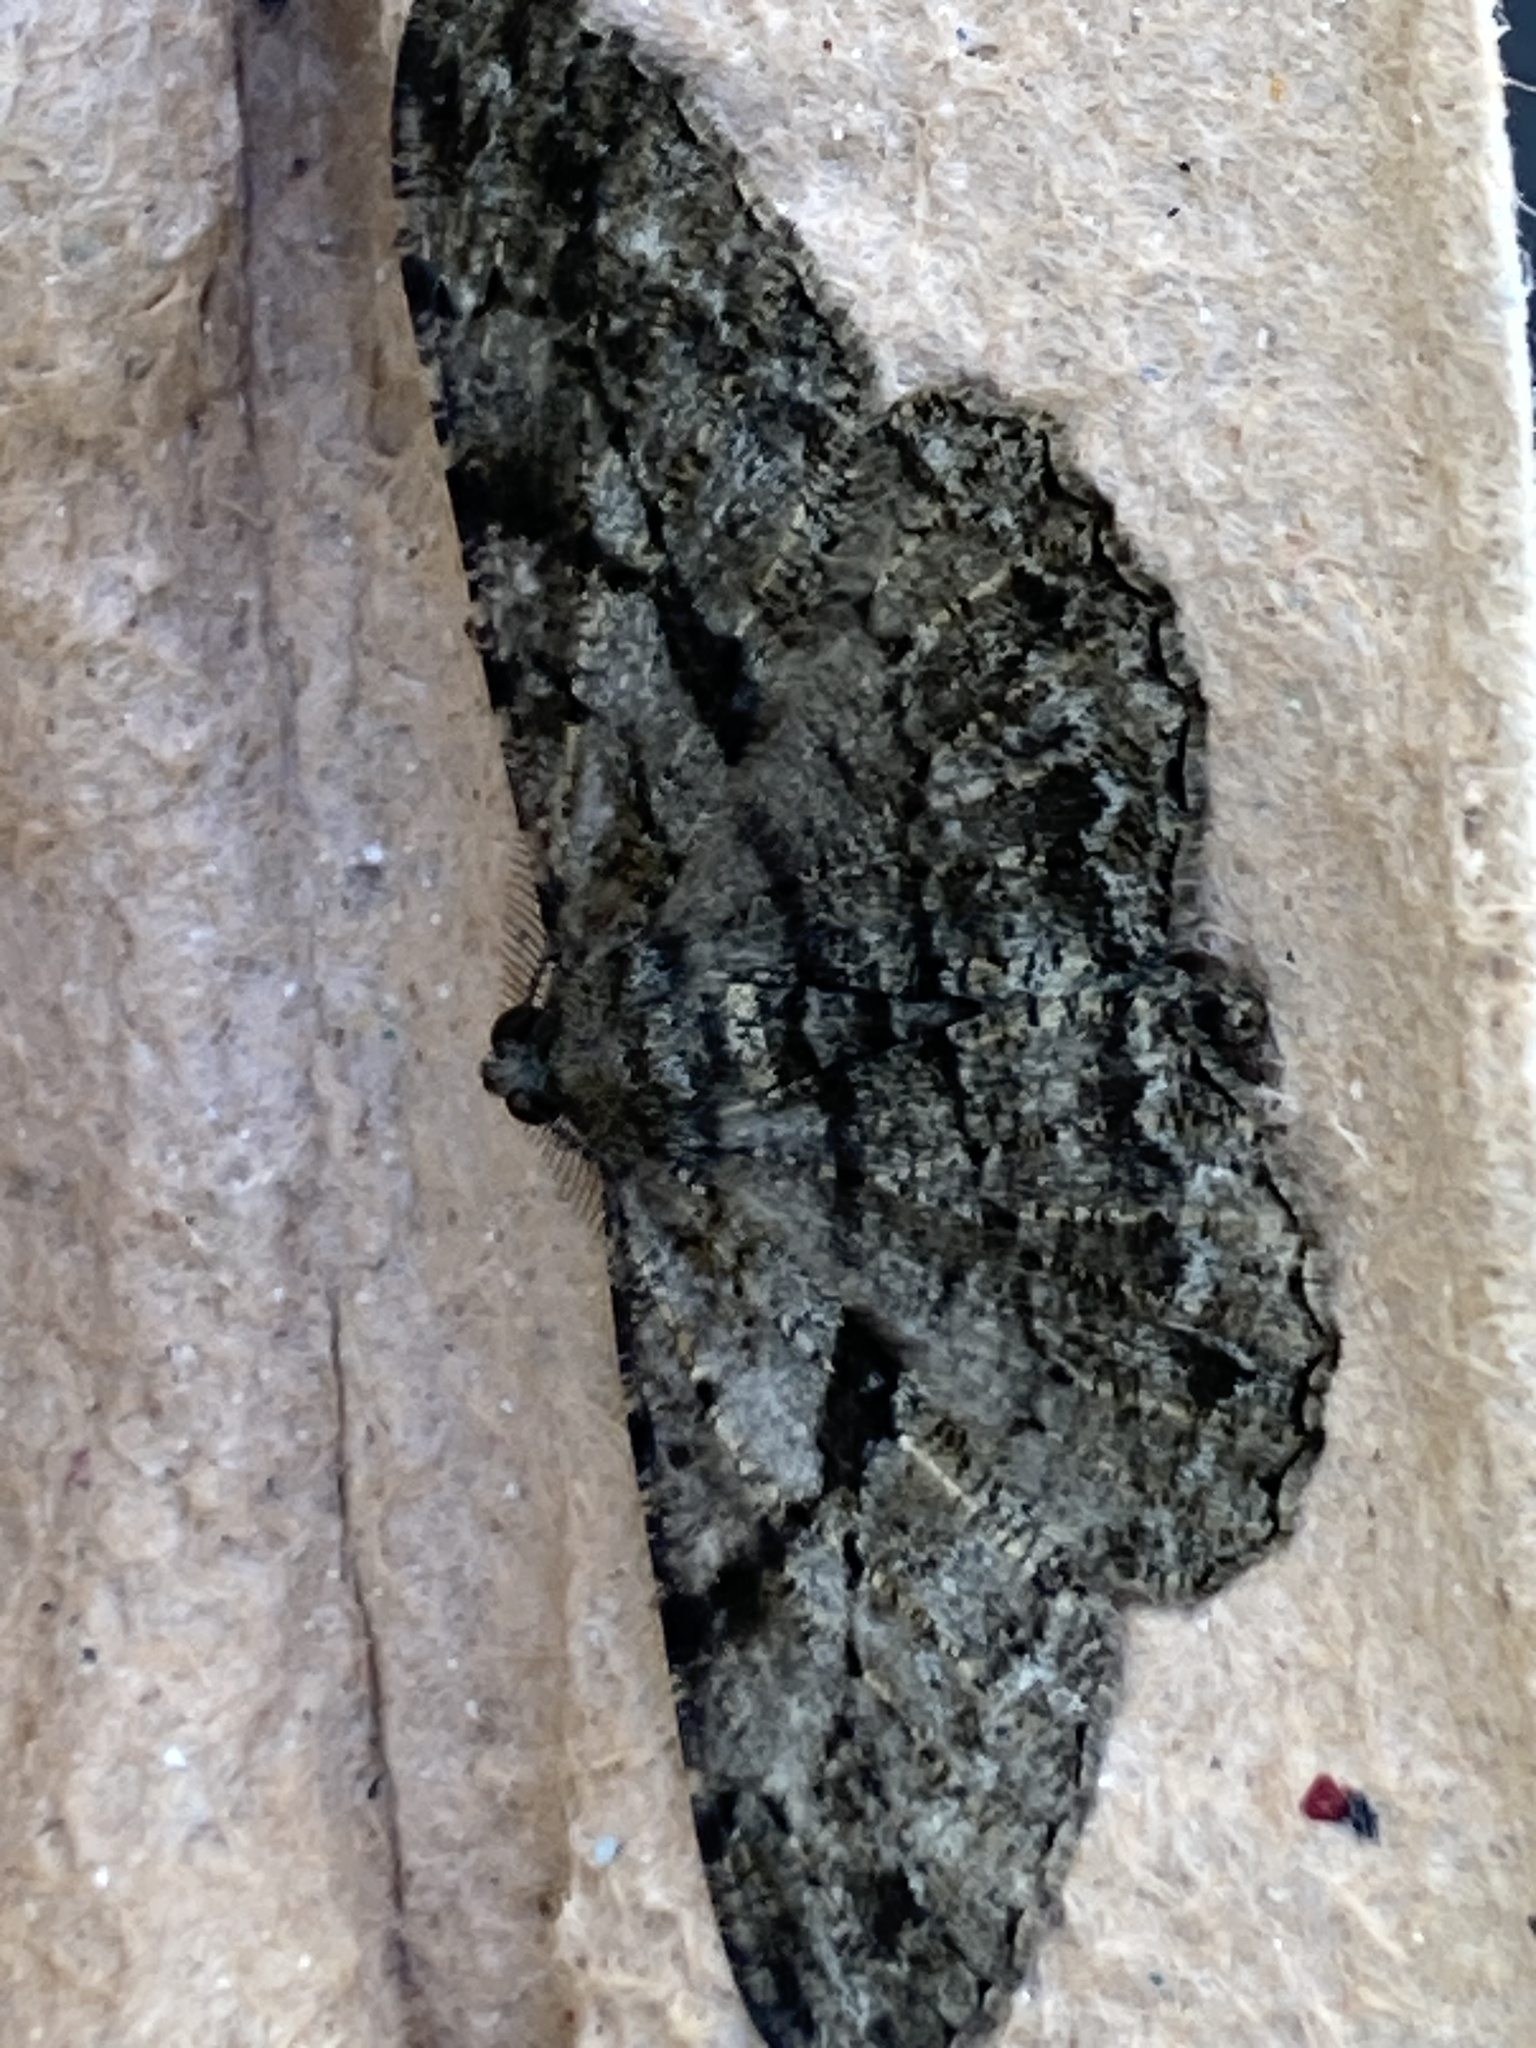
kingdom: Animalia
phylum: Arthropoda
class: Insecta
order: Lepidoptera
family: Geometridae
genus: Peribatodes
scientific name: Peribatodes rhomboidaria
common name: Willow beauty
